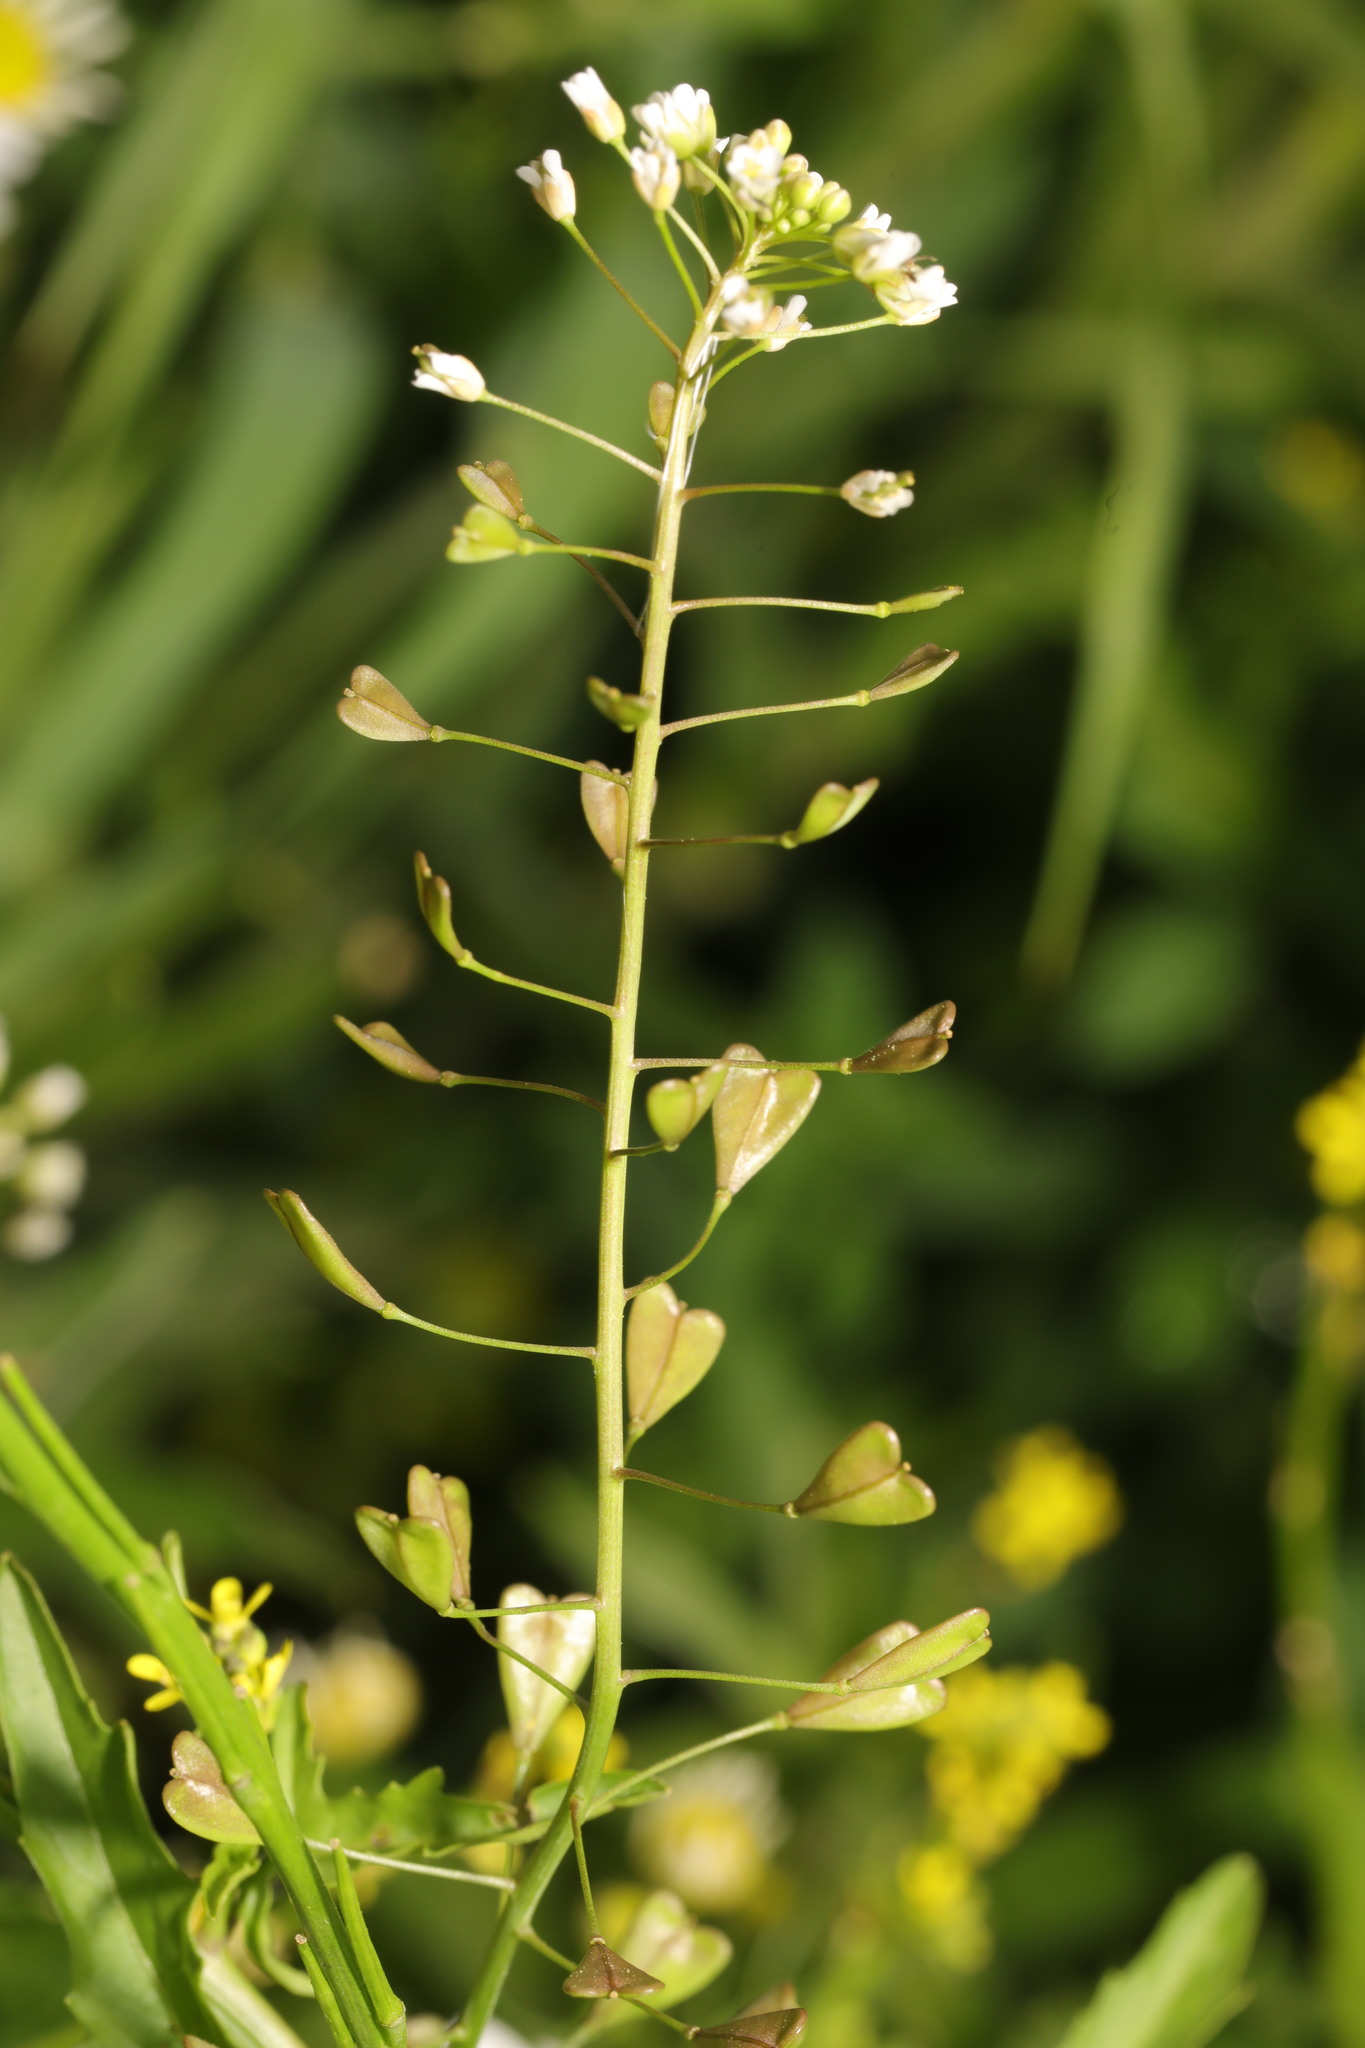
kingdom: Plantae
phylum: Tracheophyta
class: Magnoliopsida
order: Brassicales
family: Brassicaceae
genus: Capsella
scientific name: Capsella bursa-pastoris
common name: Shepherd's purse
